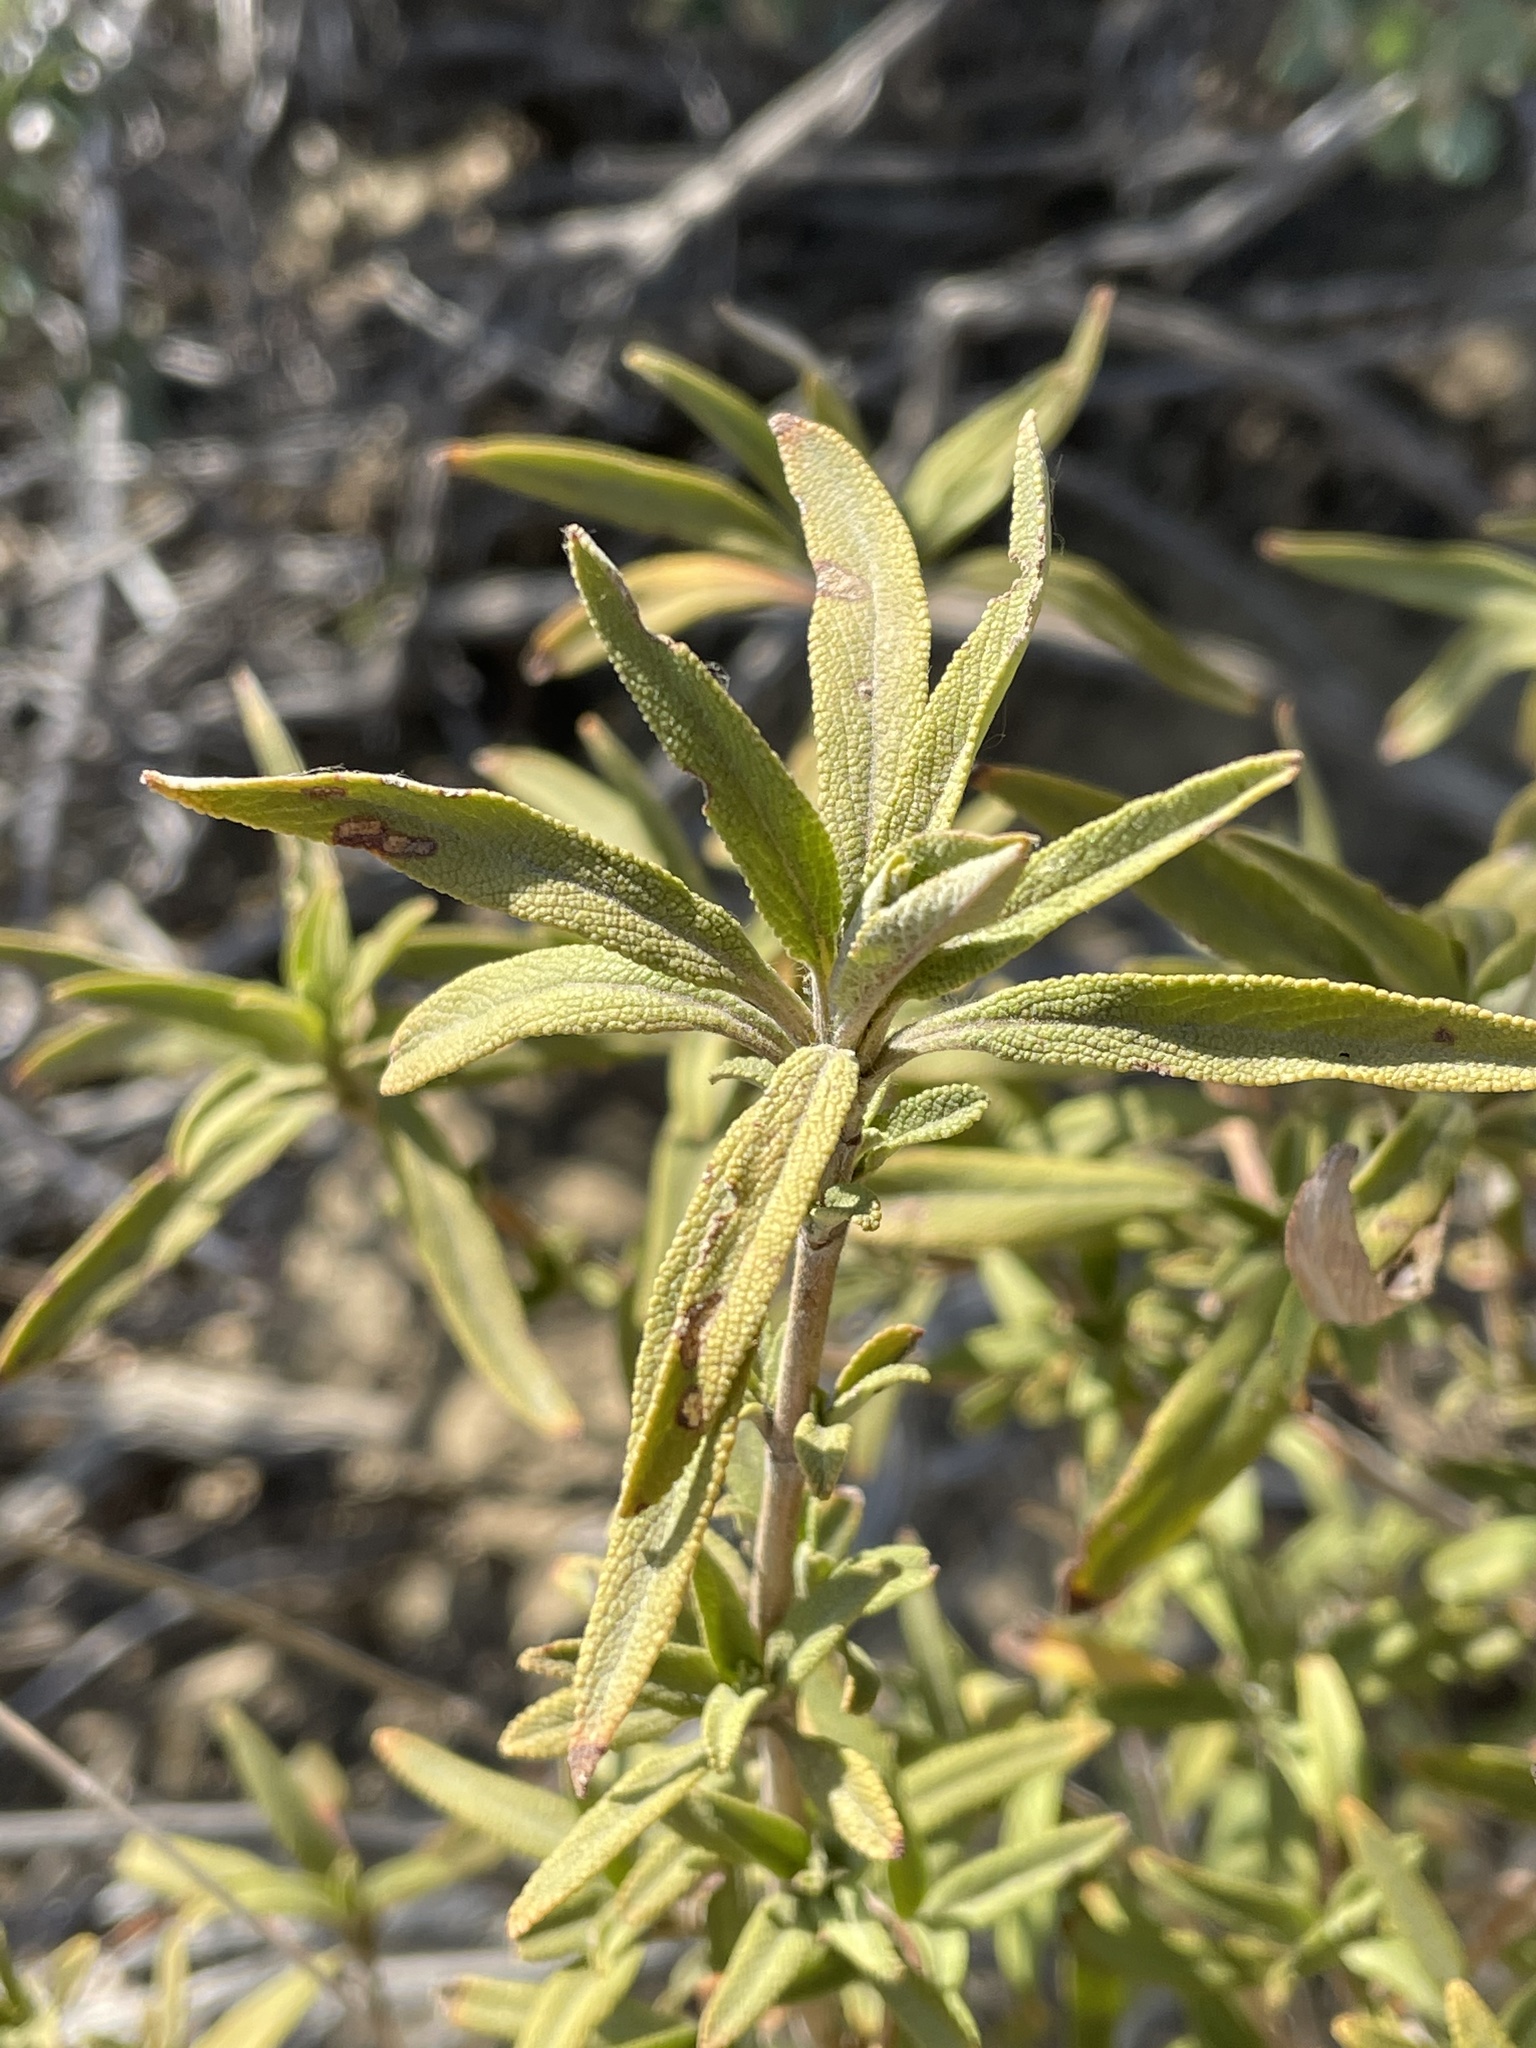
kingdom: Plantae
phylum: Tracheophyta
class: Magnoliopsida
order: Lamiales
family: Lamiaceae
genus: Salvia
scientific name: Salvia mellifera
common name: Black sage
